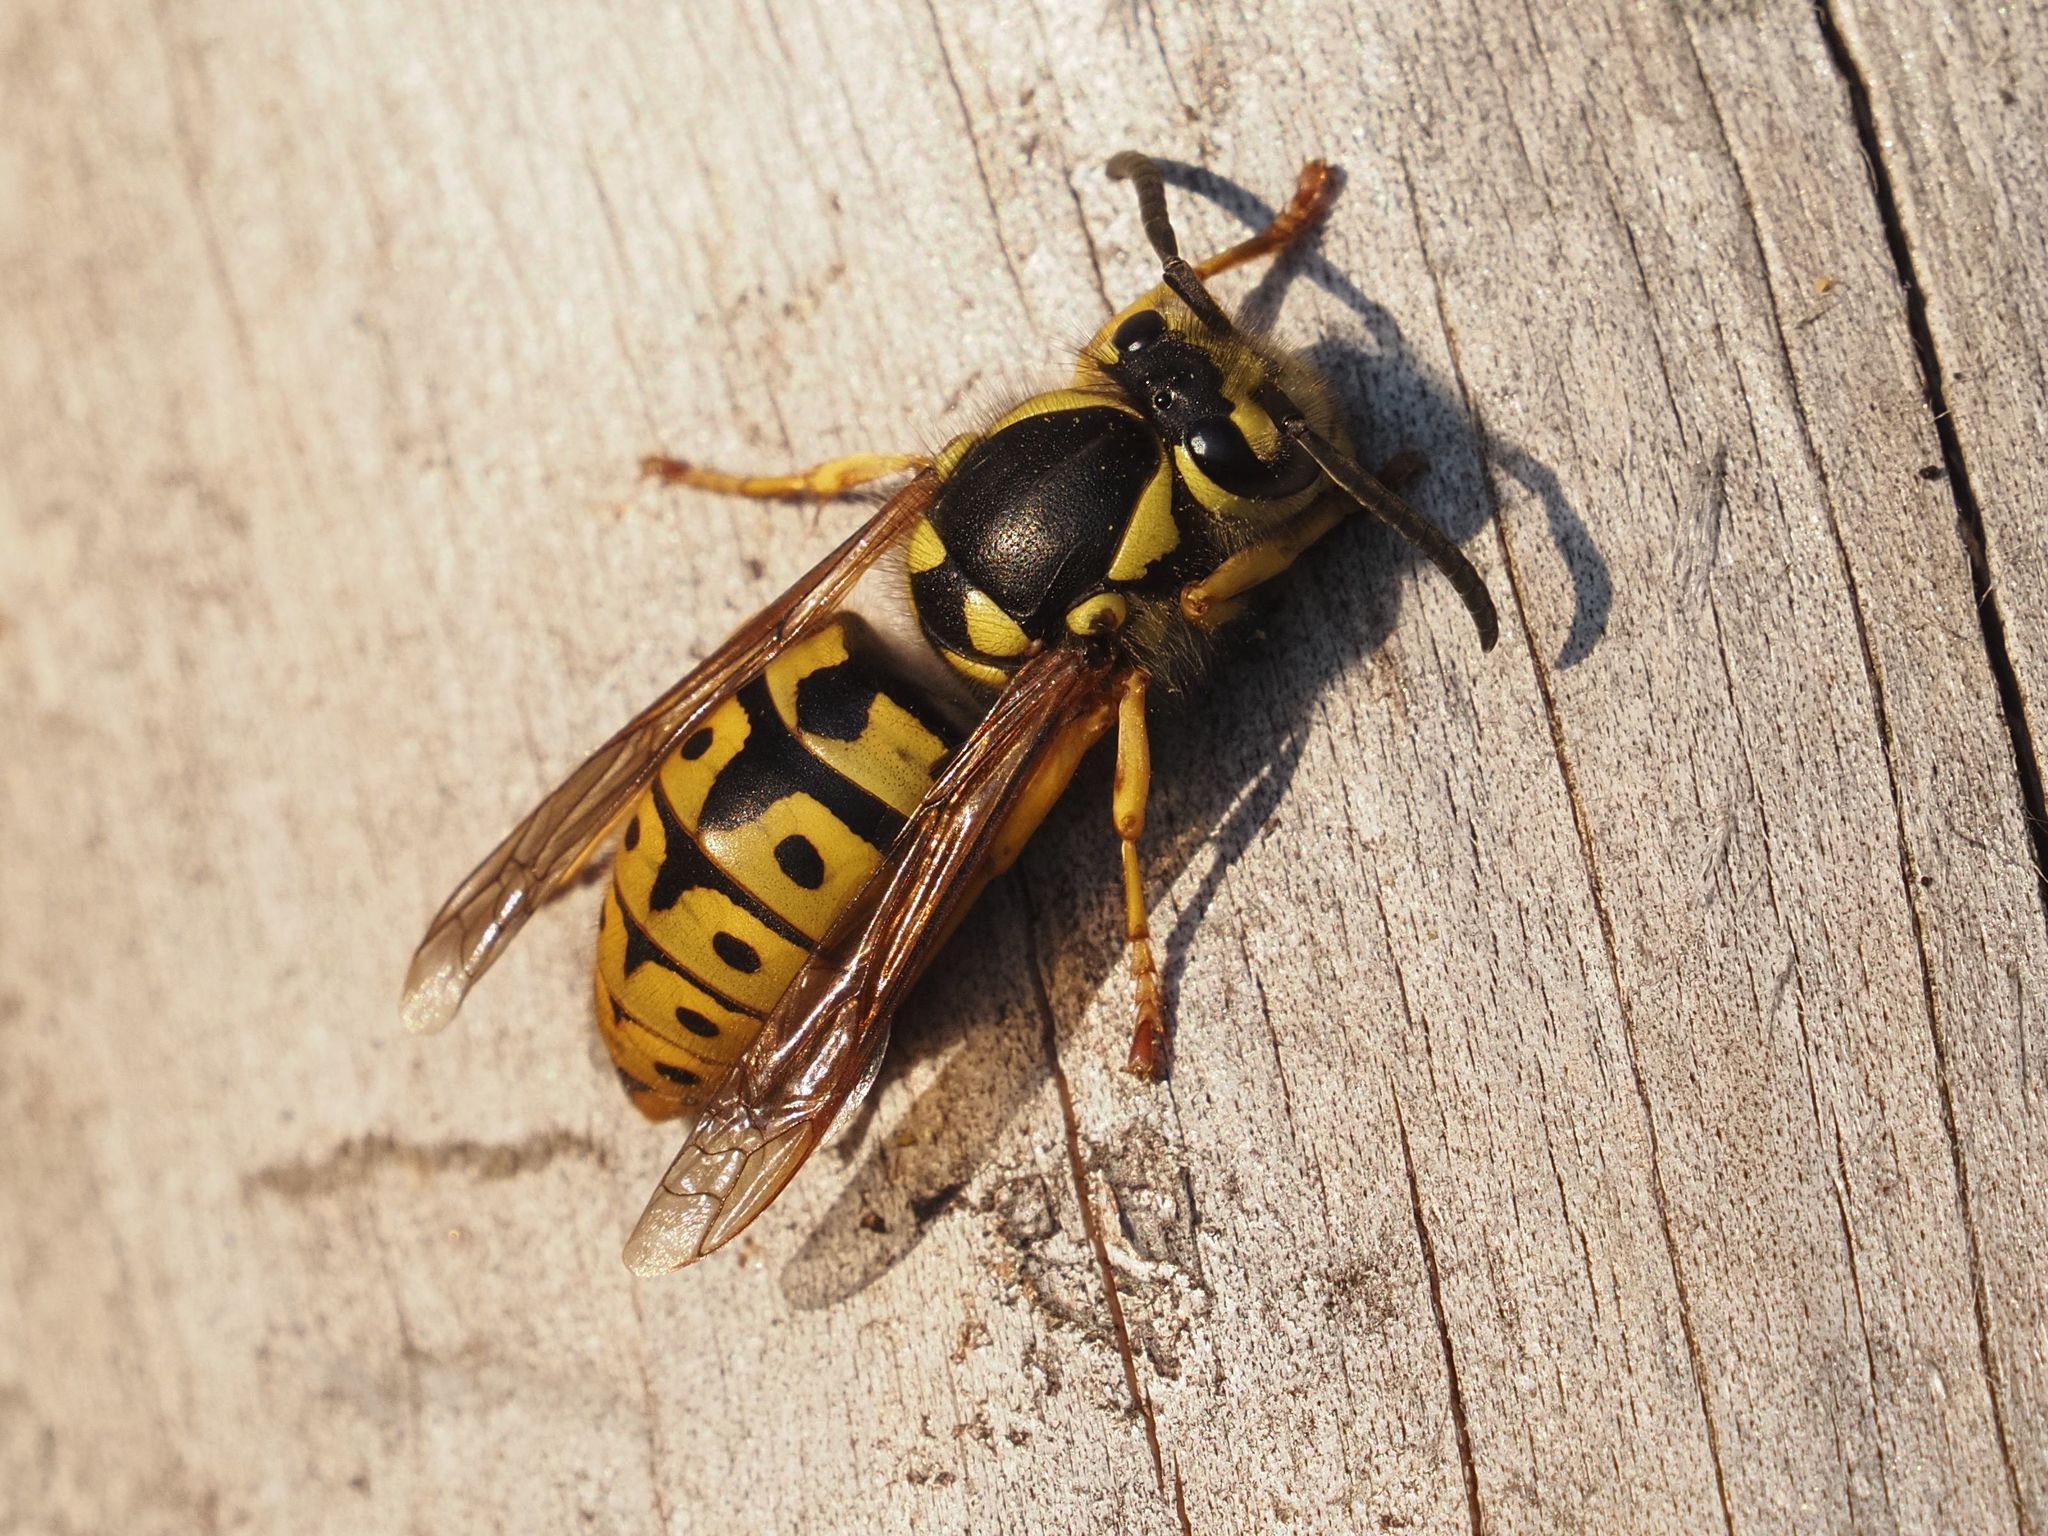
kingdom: Animalia
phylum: Arthropoda
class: Insecta
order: Hymenoptera
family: Vespidae
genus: Vespula
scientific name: Vespula germanica
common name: German wasp
